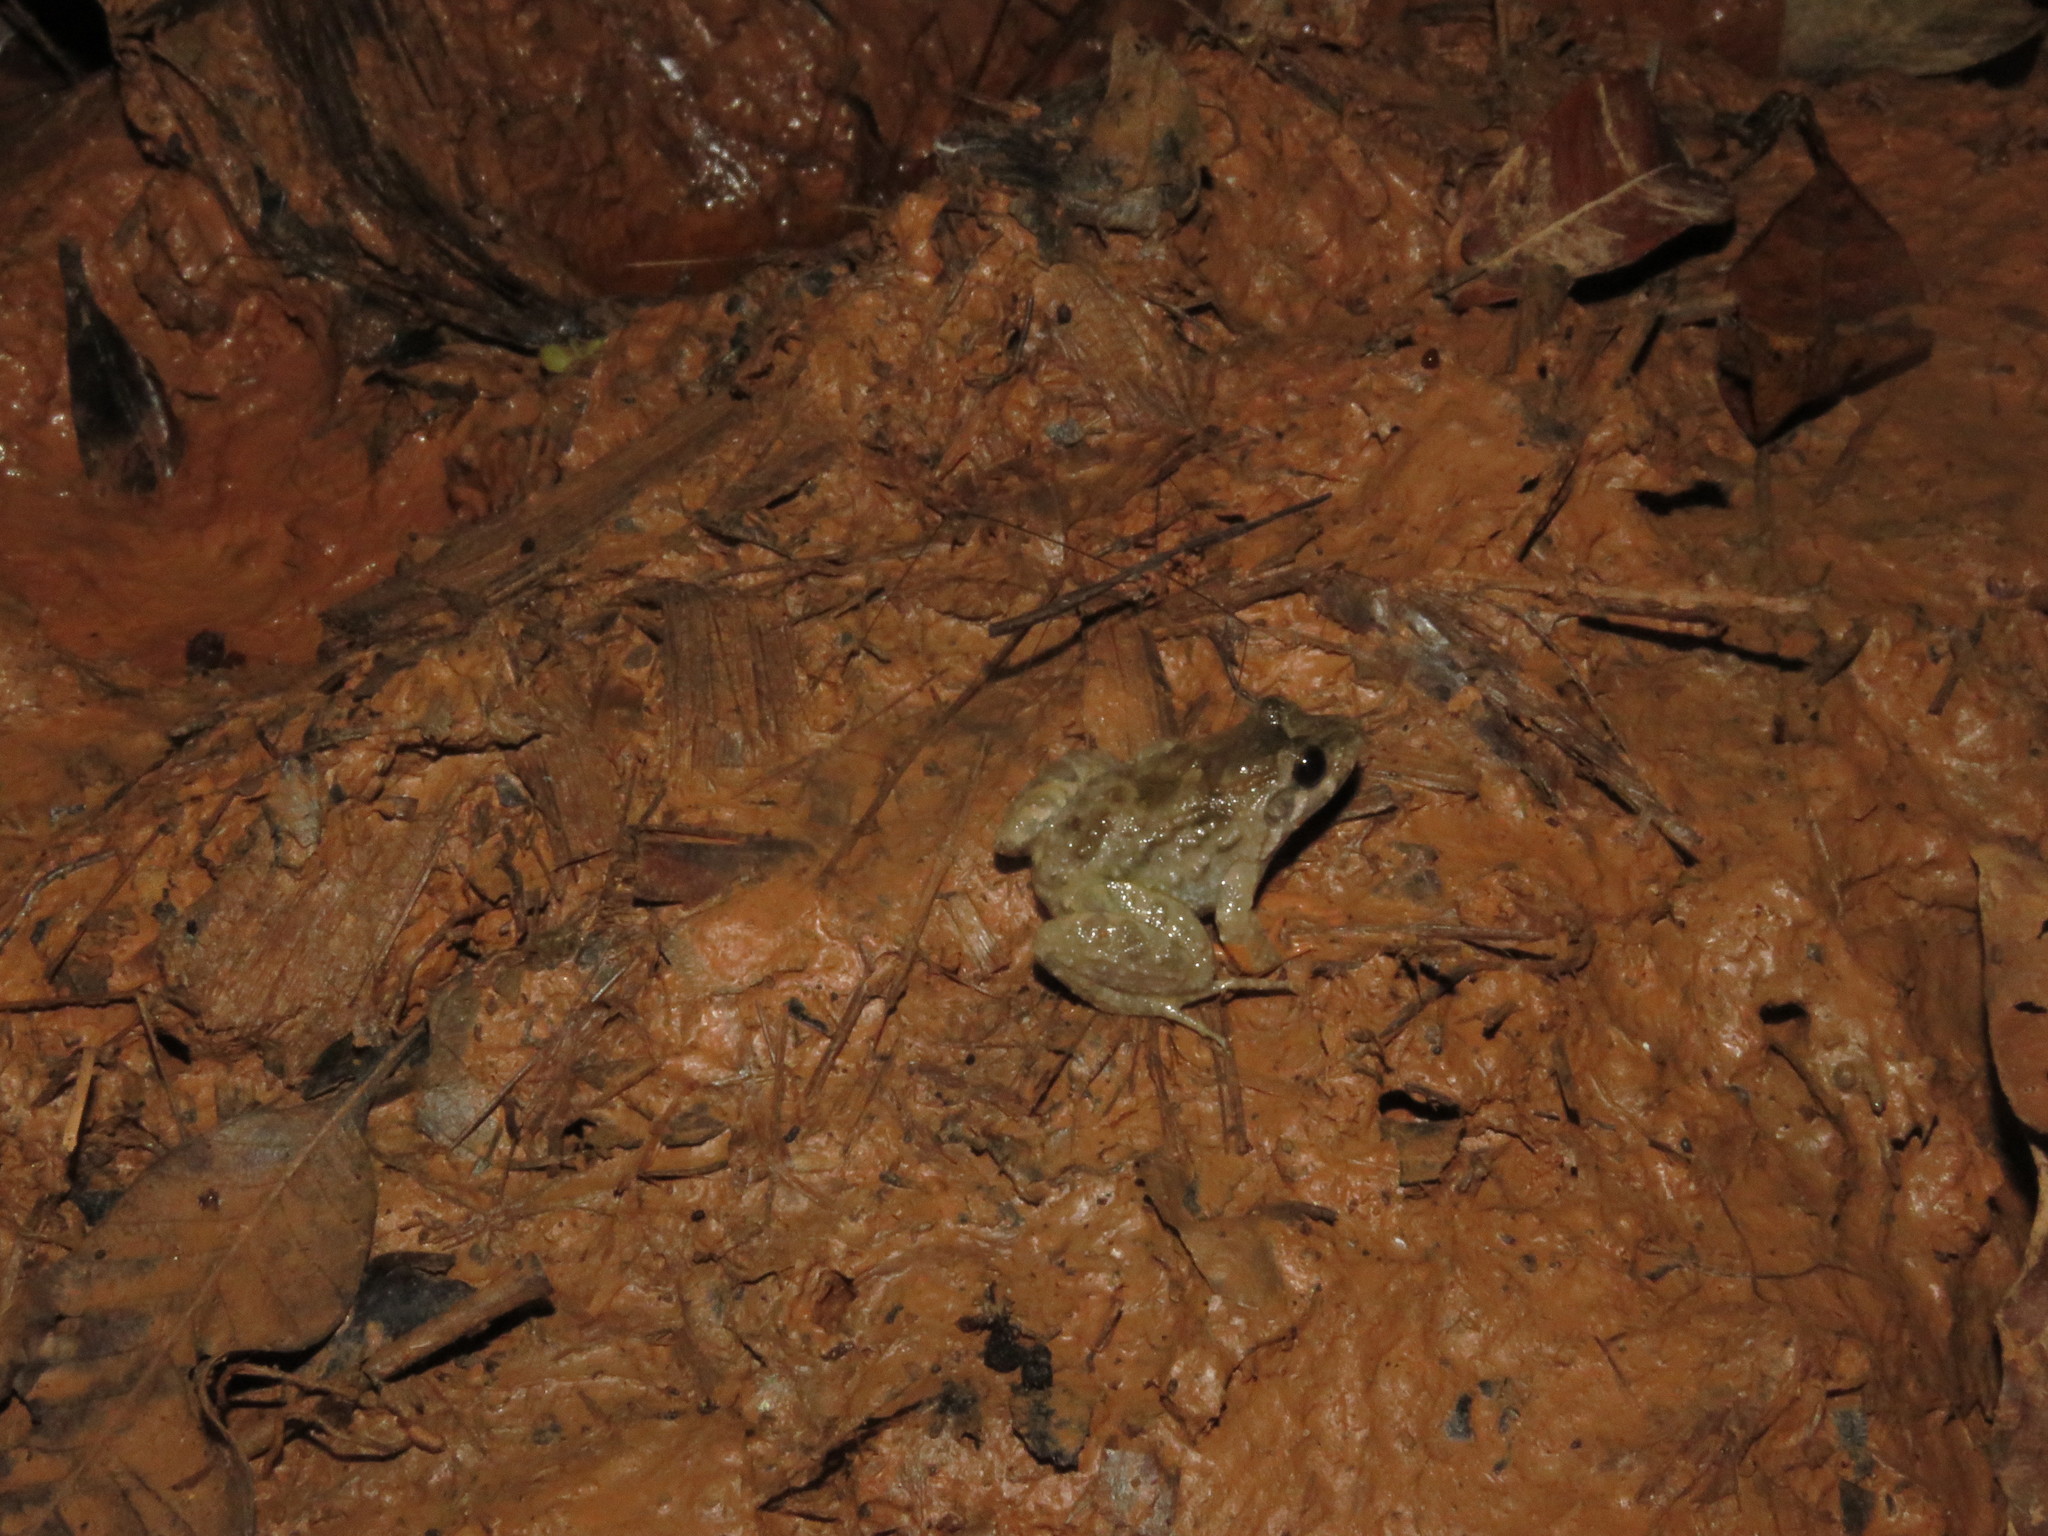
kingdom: Animalia
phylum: Chordata
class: Amphibia
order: Anura
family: Leptodactylidae
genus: Leptodactylus
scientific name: Leptodactylus griseigularis
